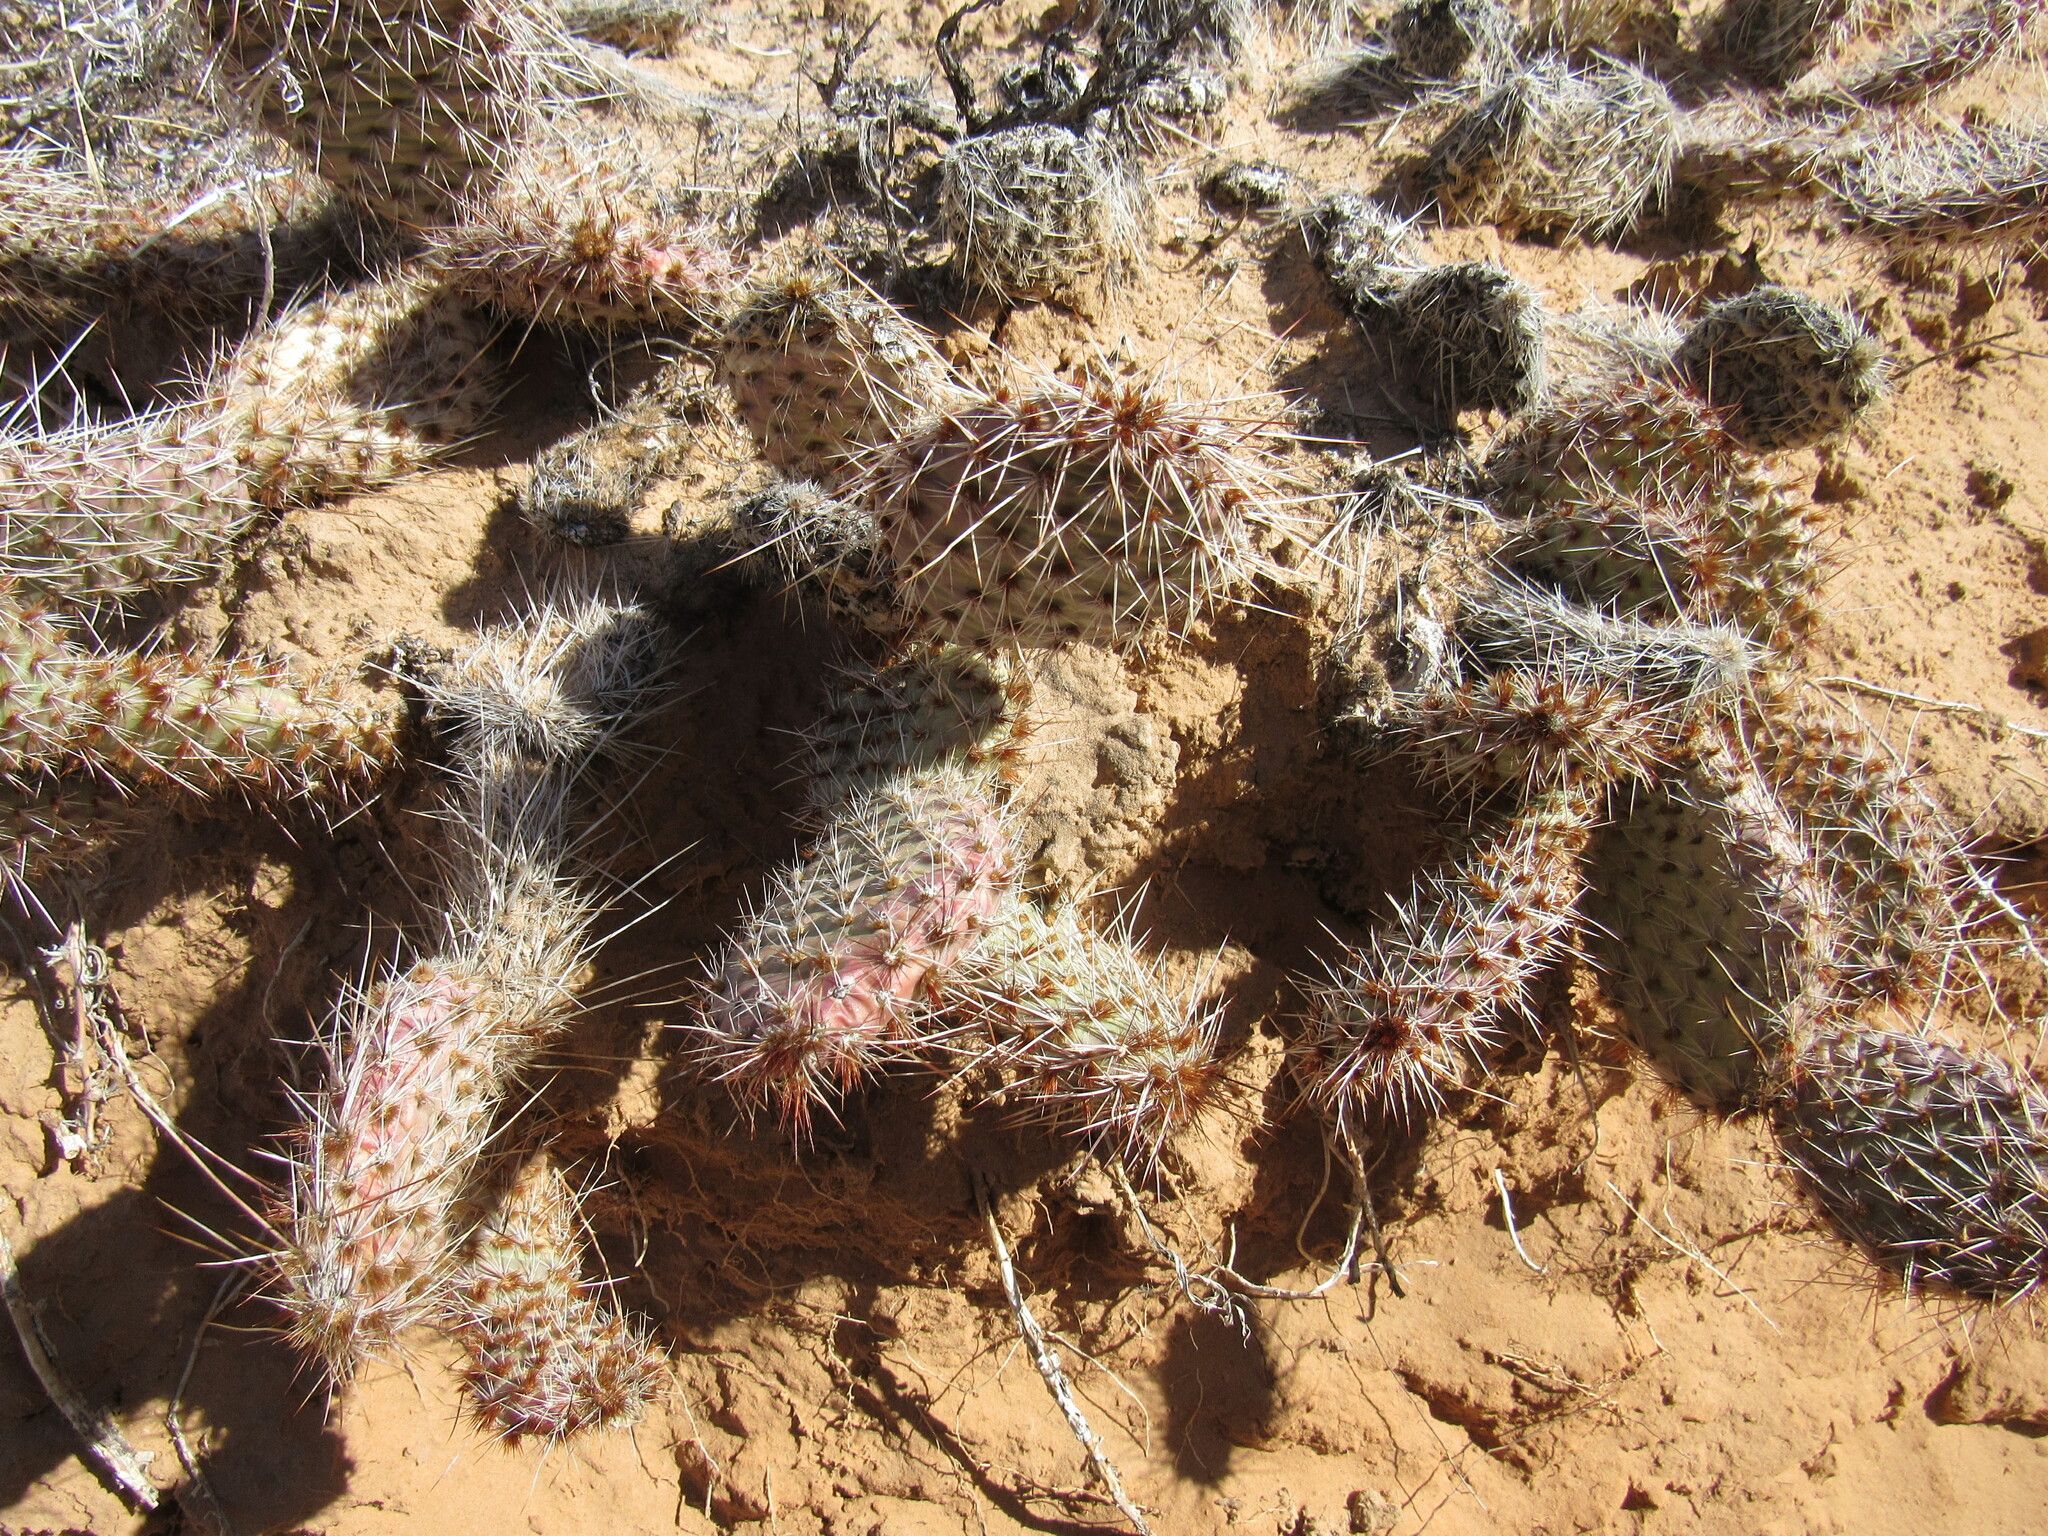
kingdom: Plantae
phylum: Tracheophyta
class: Magnoliopsida
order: Caryophyllales
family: Cactaceae
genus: Opuntia
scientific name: Opuntia polyacantha
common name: Plains prickly-pear
